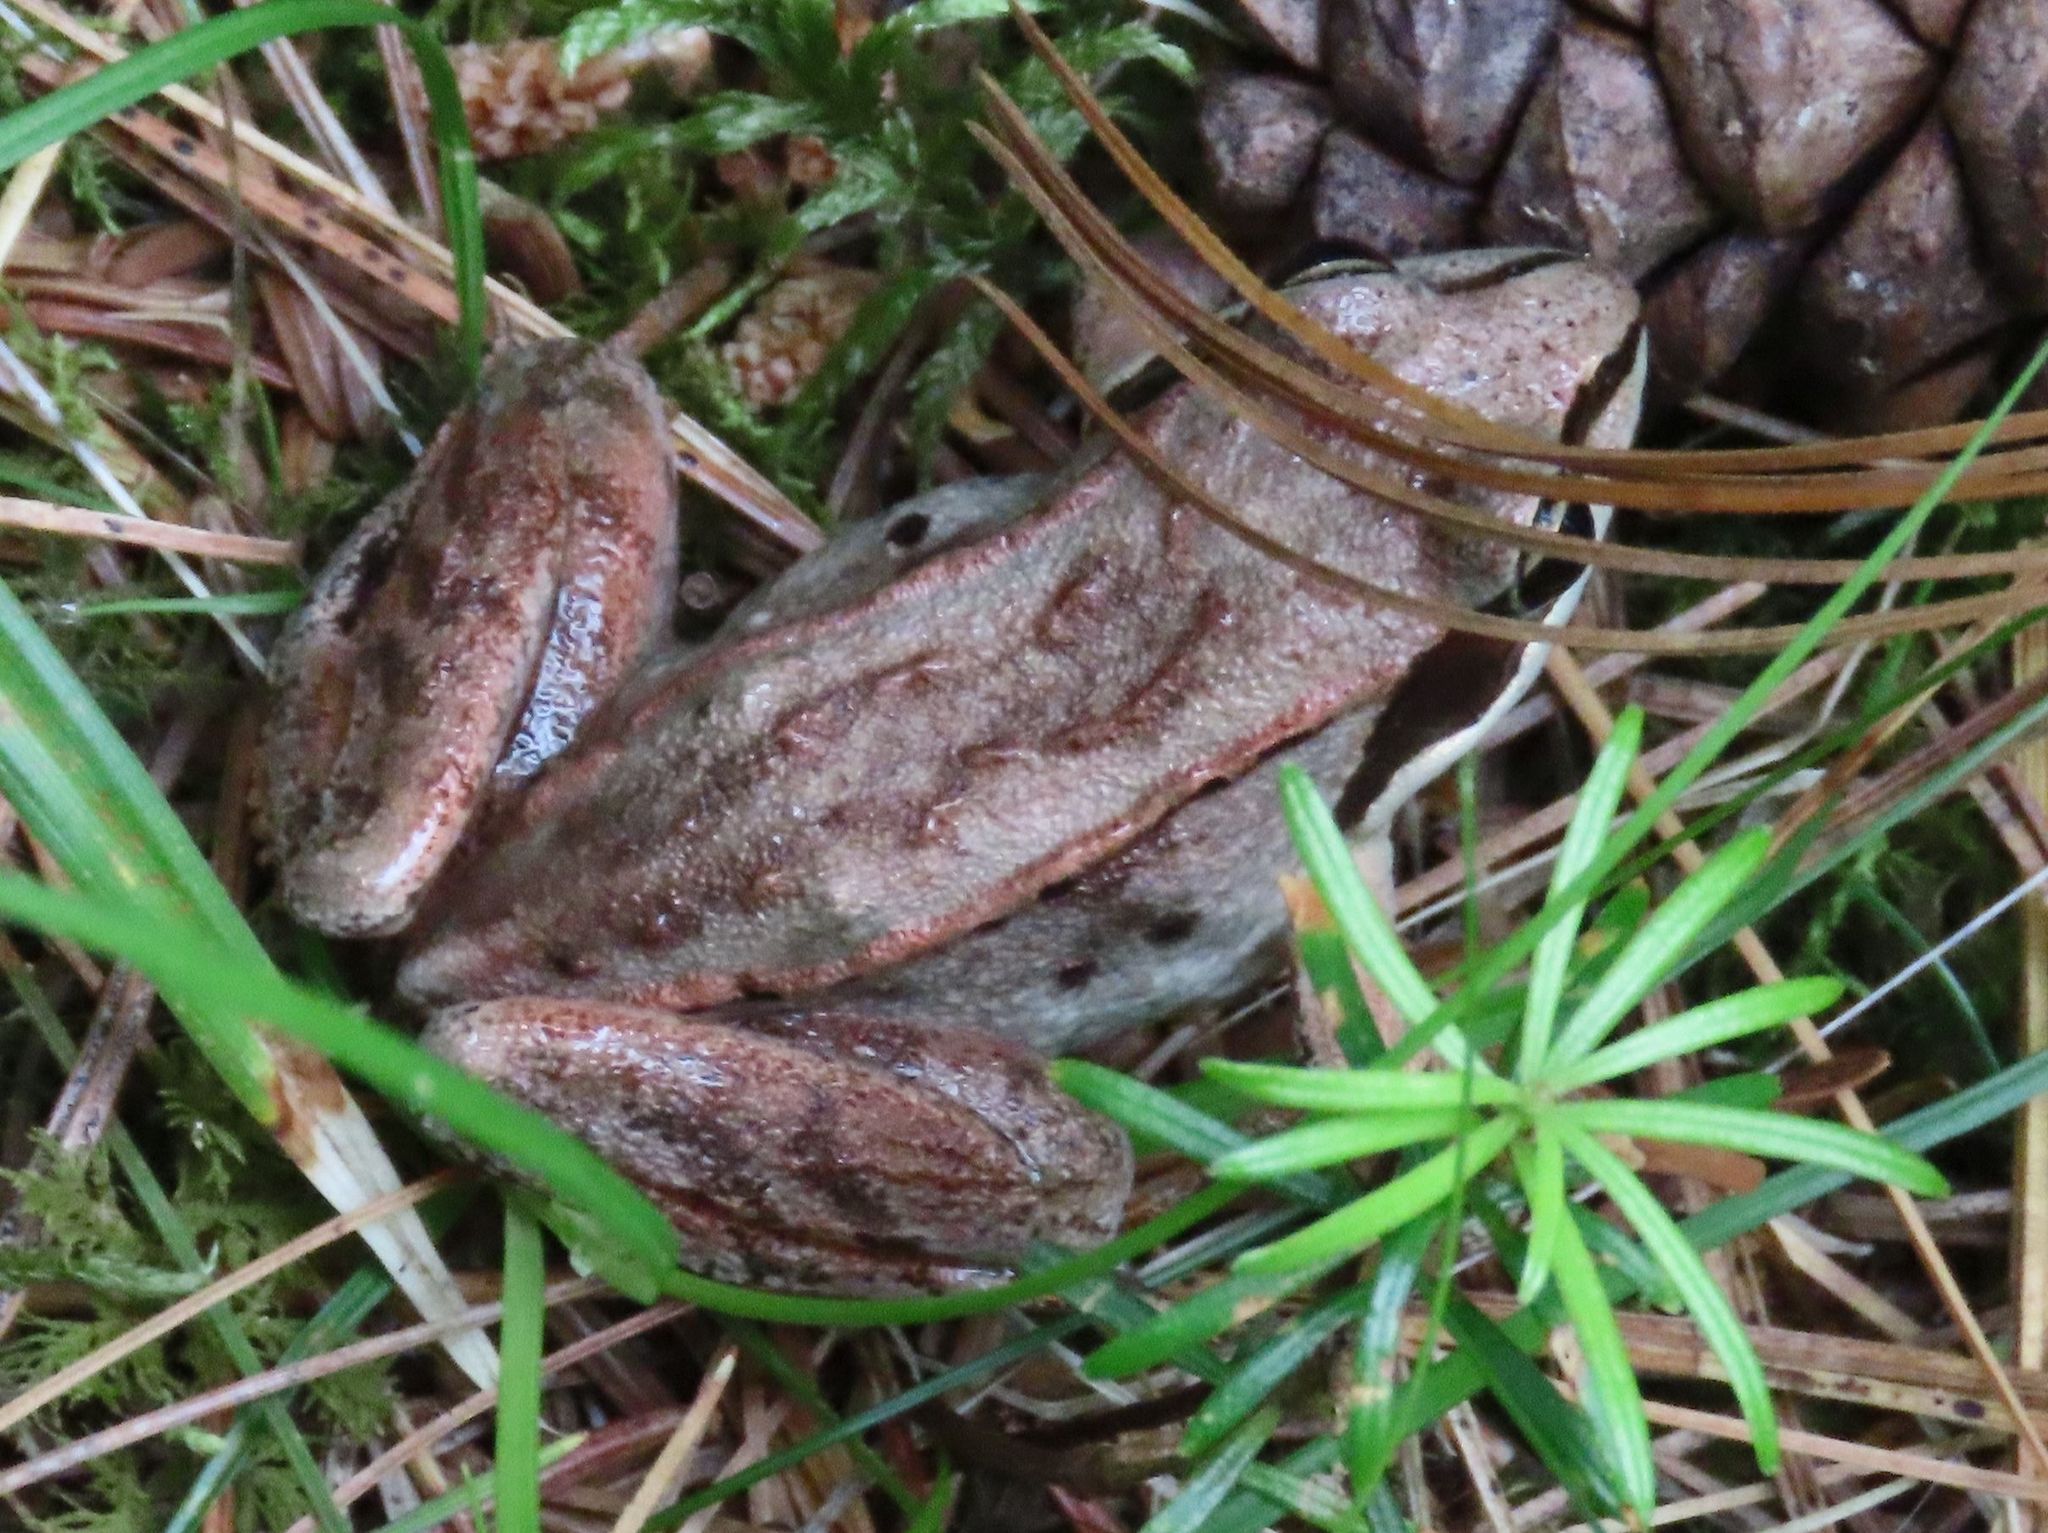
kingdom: Animalia
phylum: Chordata
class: Amphibia
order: Anura
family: Ranidae
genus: Lithobates
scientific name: Lithobates sylvaticus
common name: Wood frog
